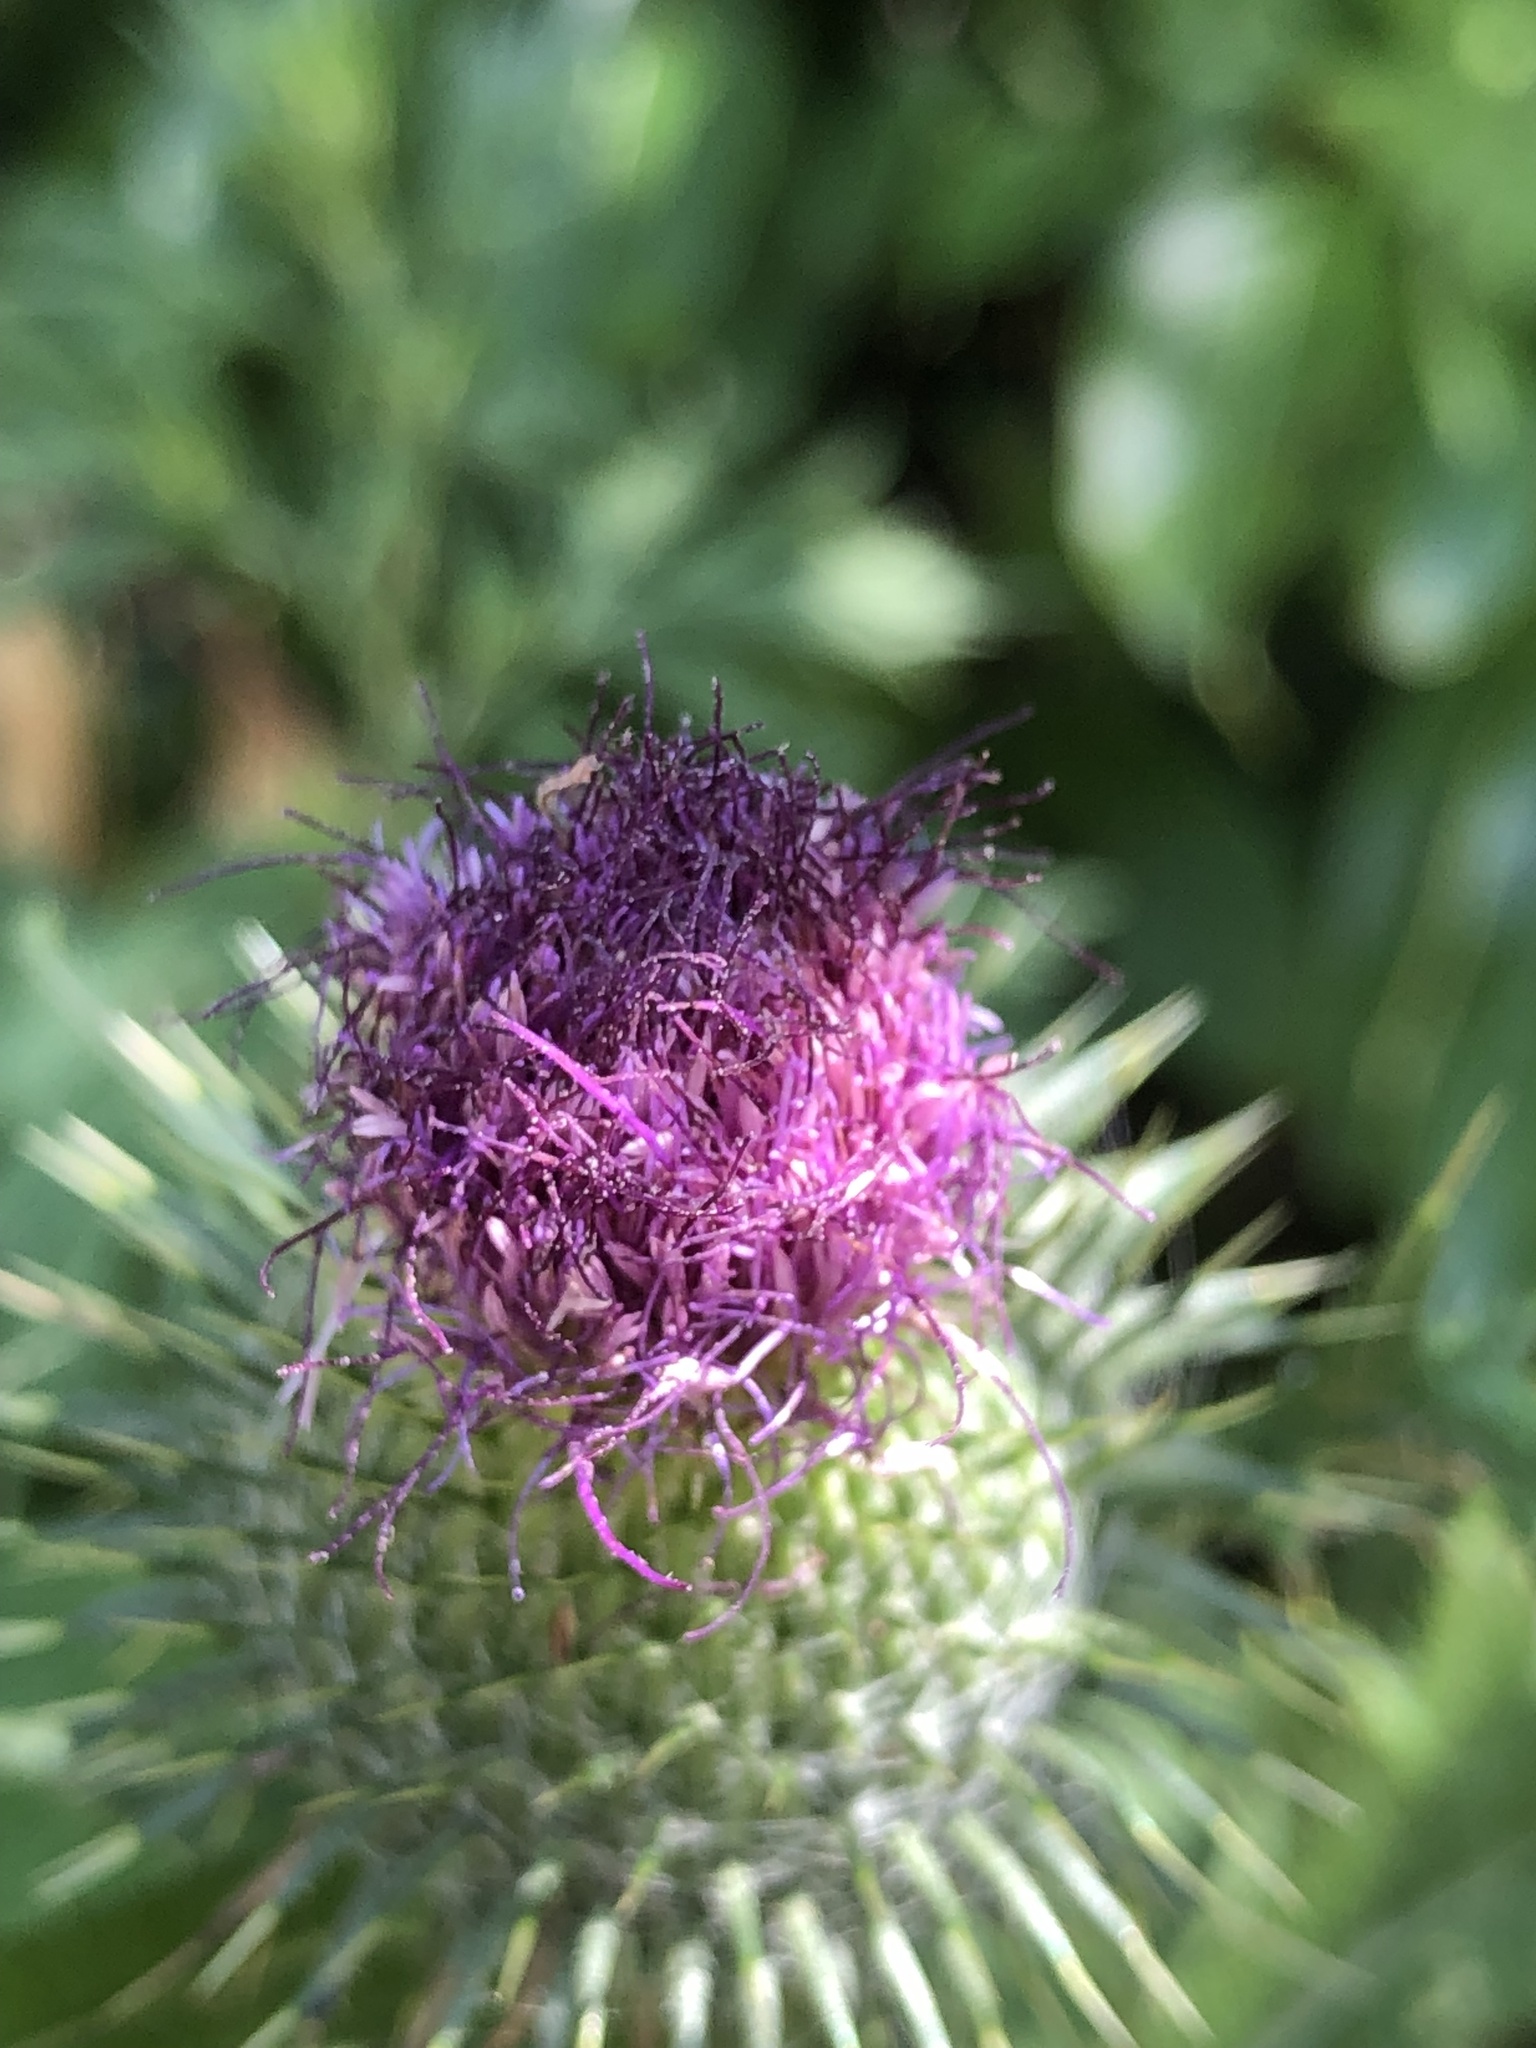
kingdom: Plantae
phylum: Tracheophyta
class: Magnoliopsida
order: Asterales
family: Asteraceae
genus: Cirsium
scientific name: Cirsium vulgare
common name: Bull thistle
